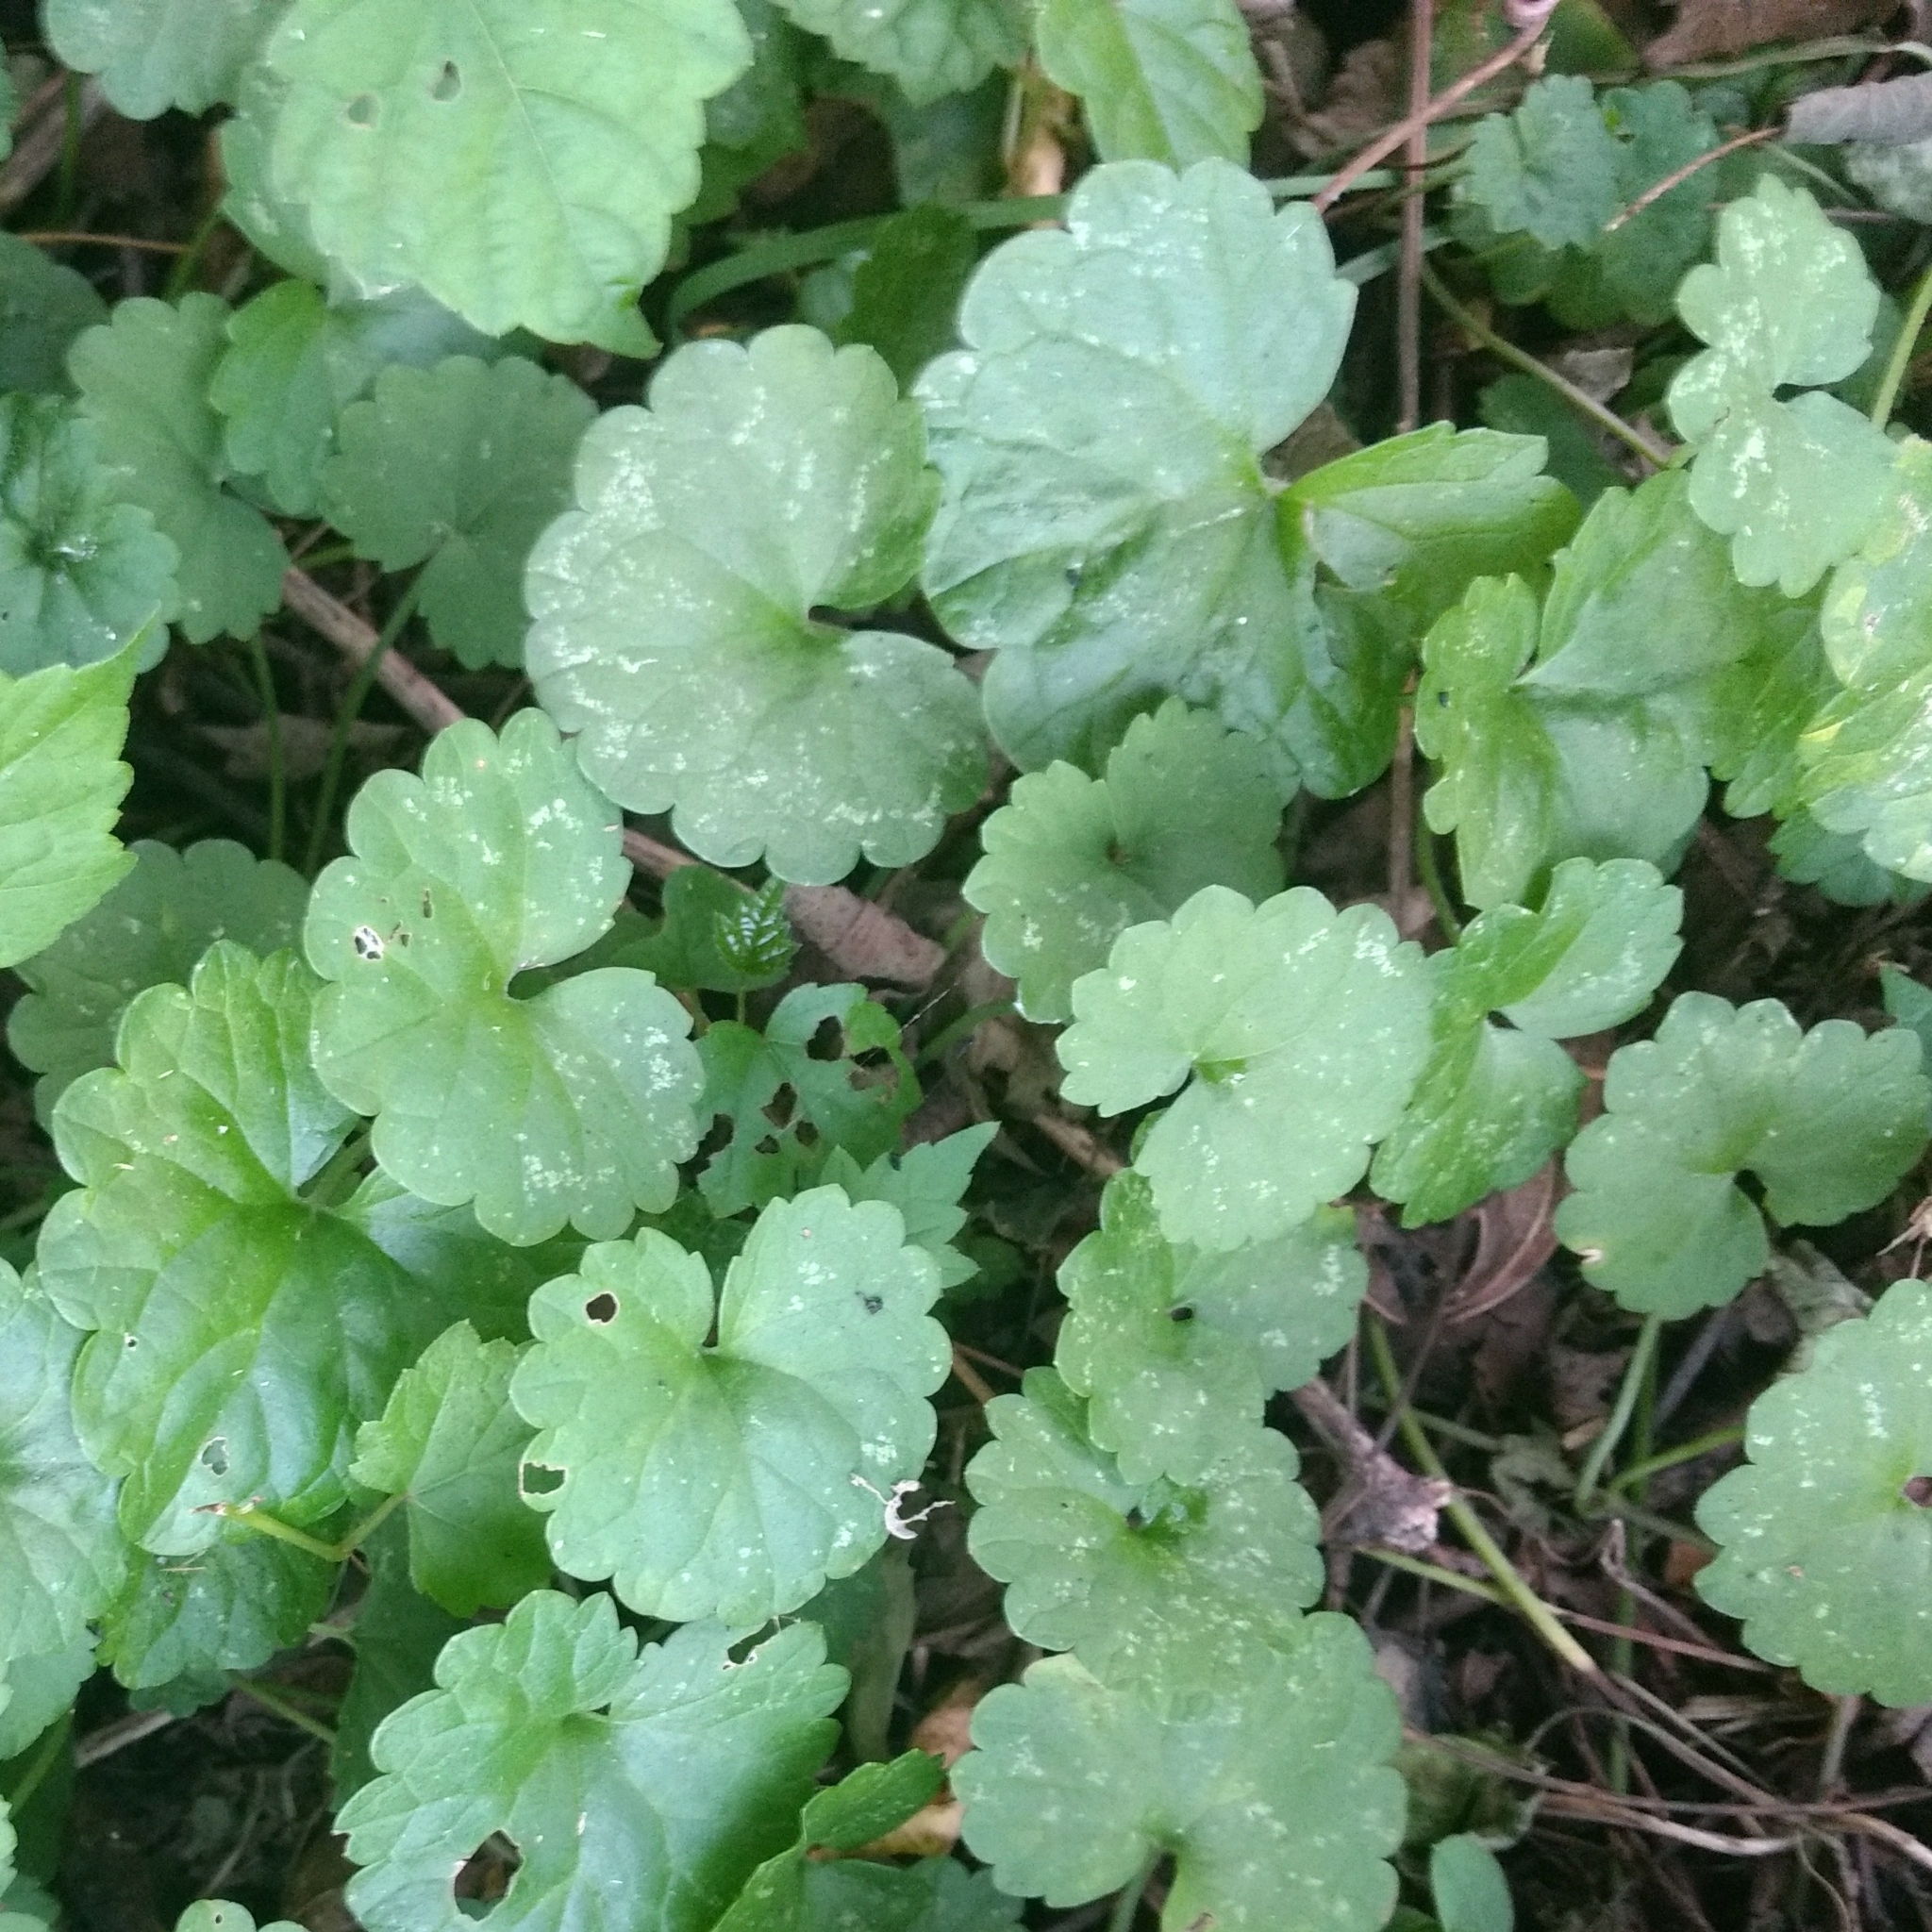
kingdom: Plantae
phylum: Tracheophyta
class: Magnoliopsida
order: Lamiales
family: Lamiaceae
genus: Glechoma
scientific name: Glechoma hederacea
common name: Ground ivy
